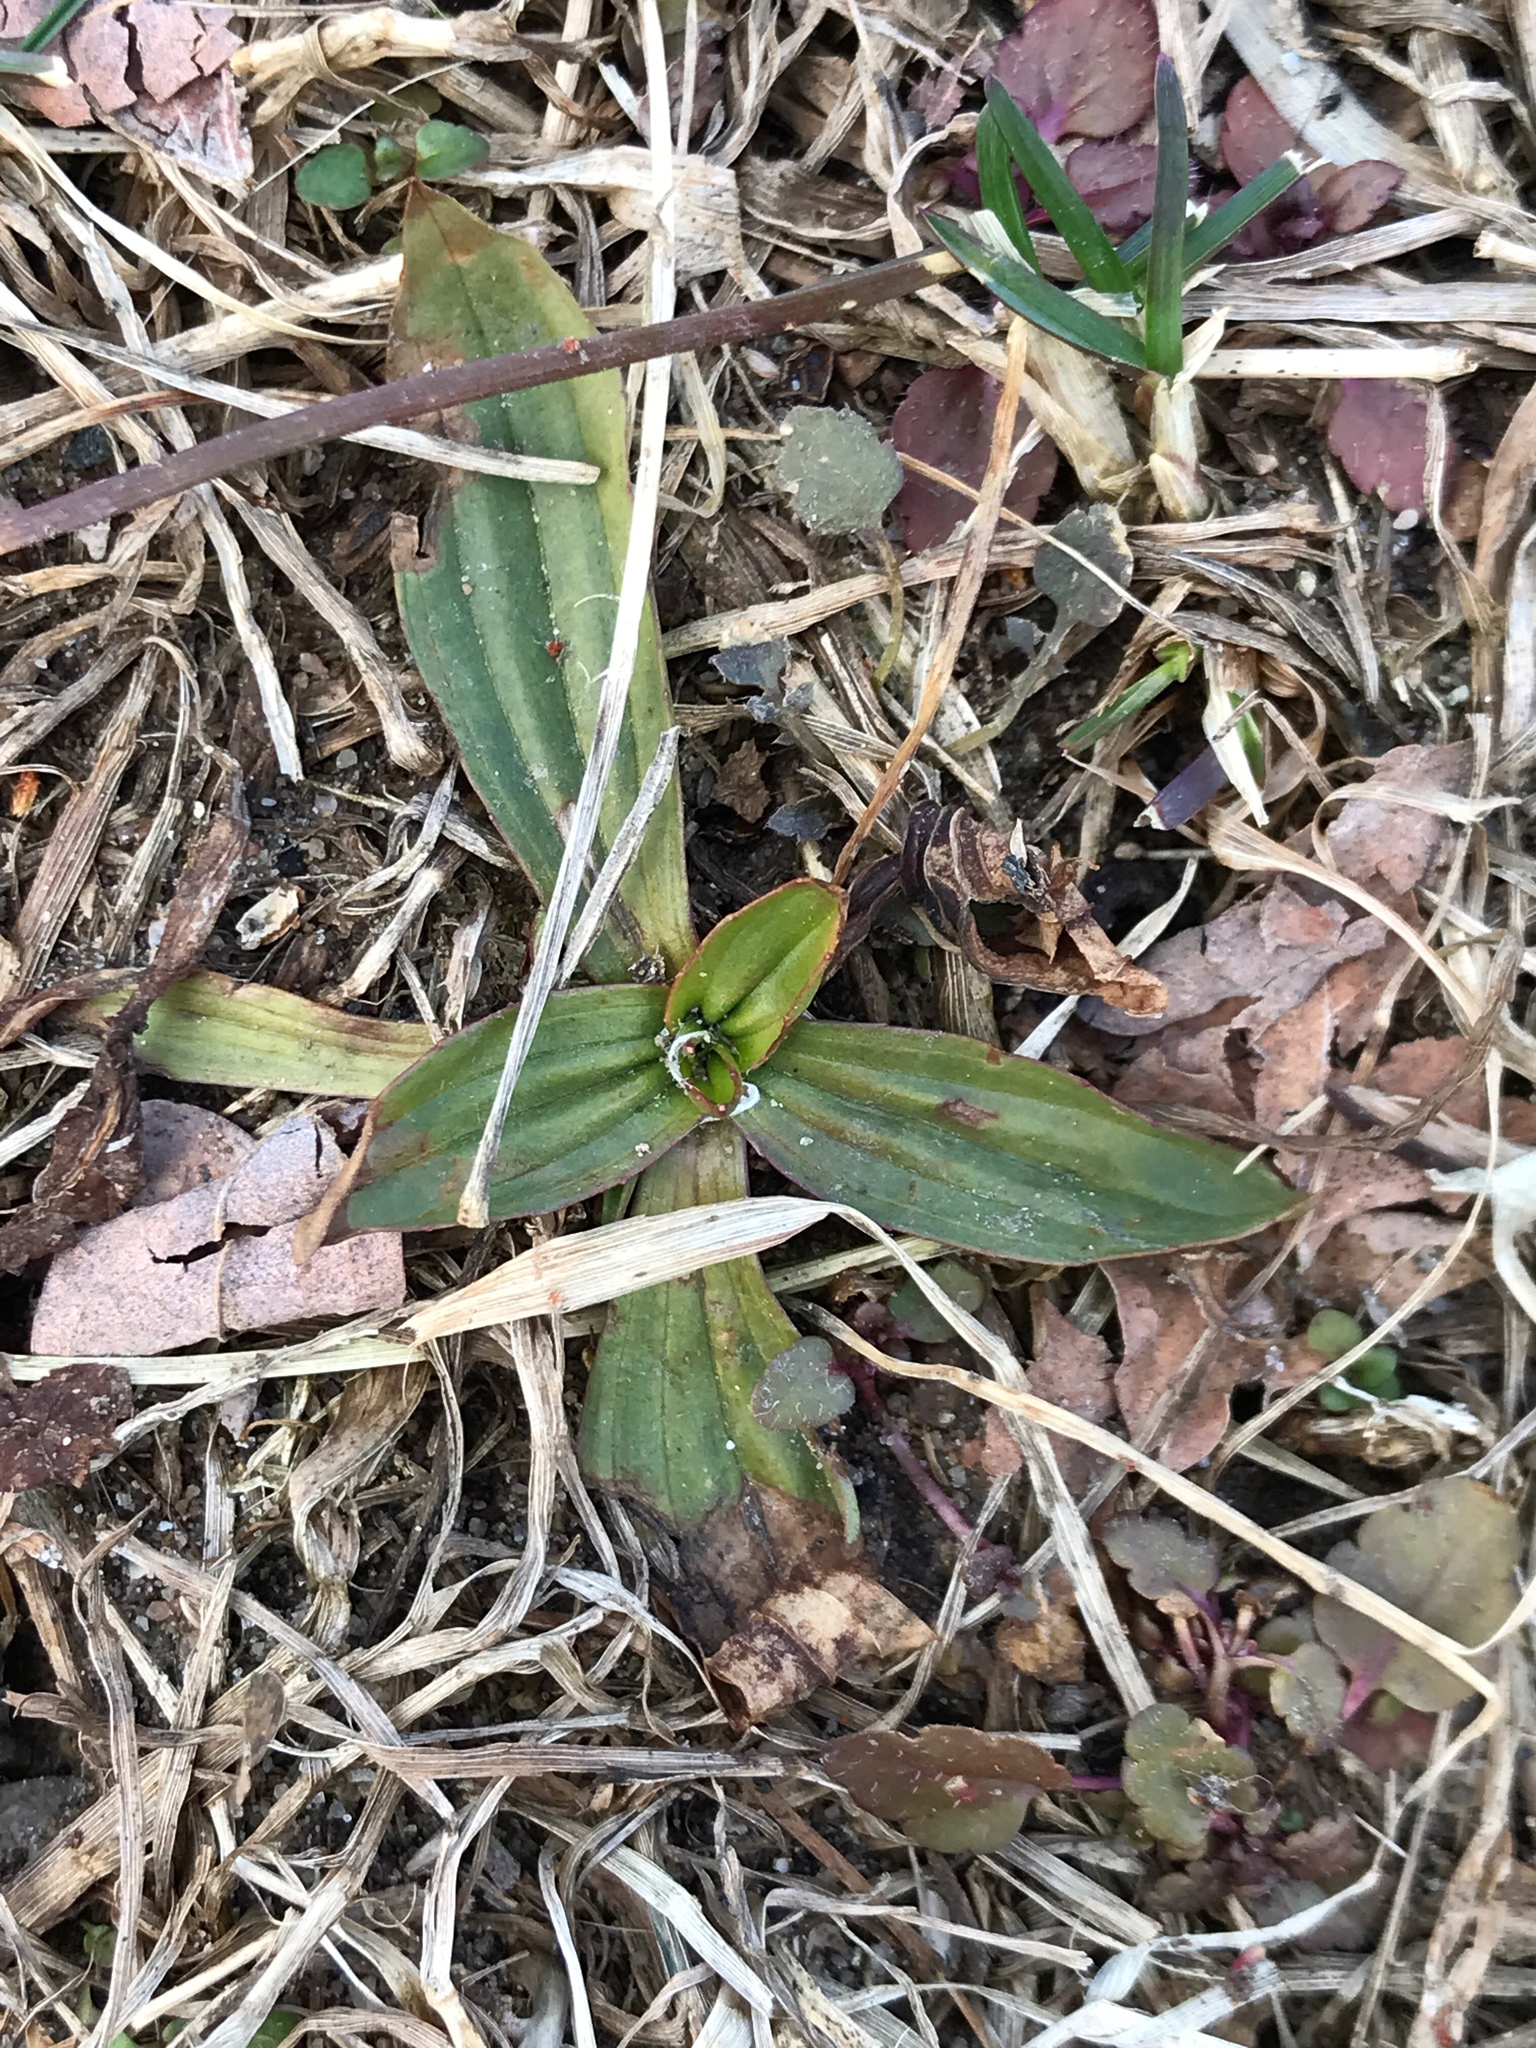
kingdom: Plantae
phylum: Tracheophyta
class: Magnoliopsida
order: Lamiales
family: Plantaginaceae
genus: Plantago
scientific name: Plantago lanceolata
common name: Ribwort plantain
